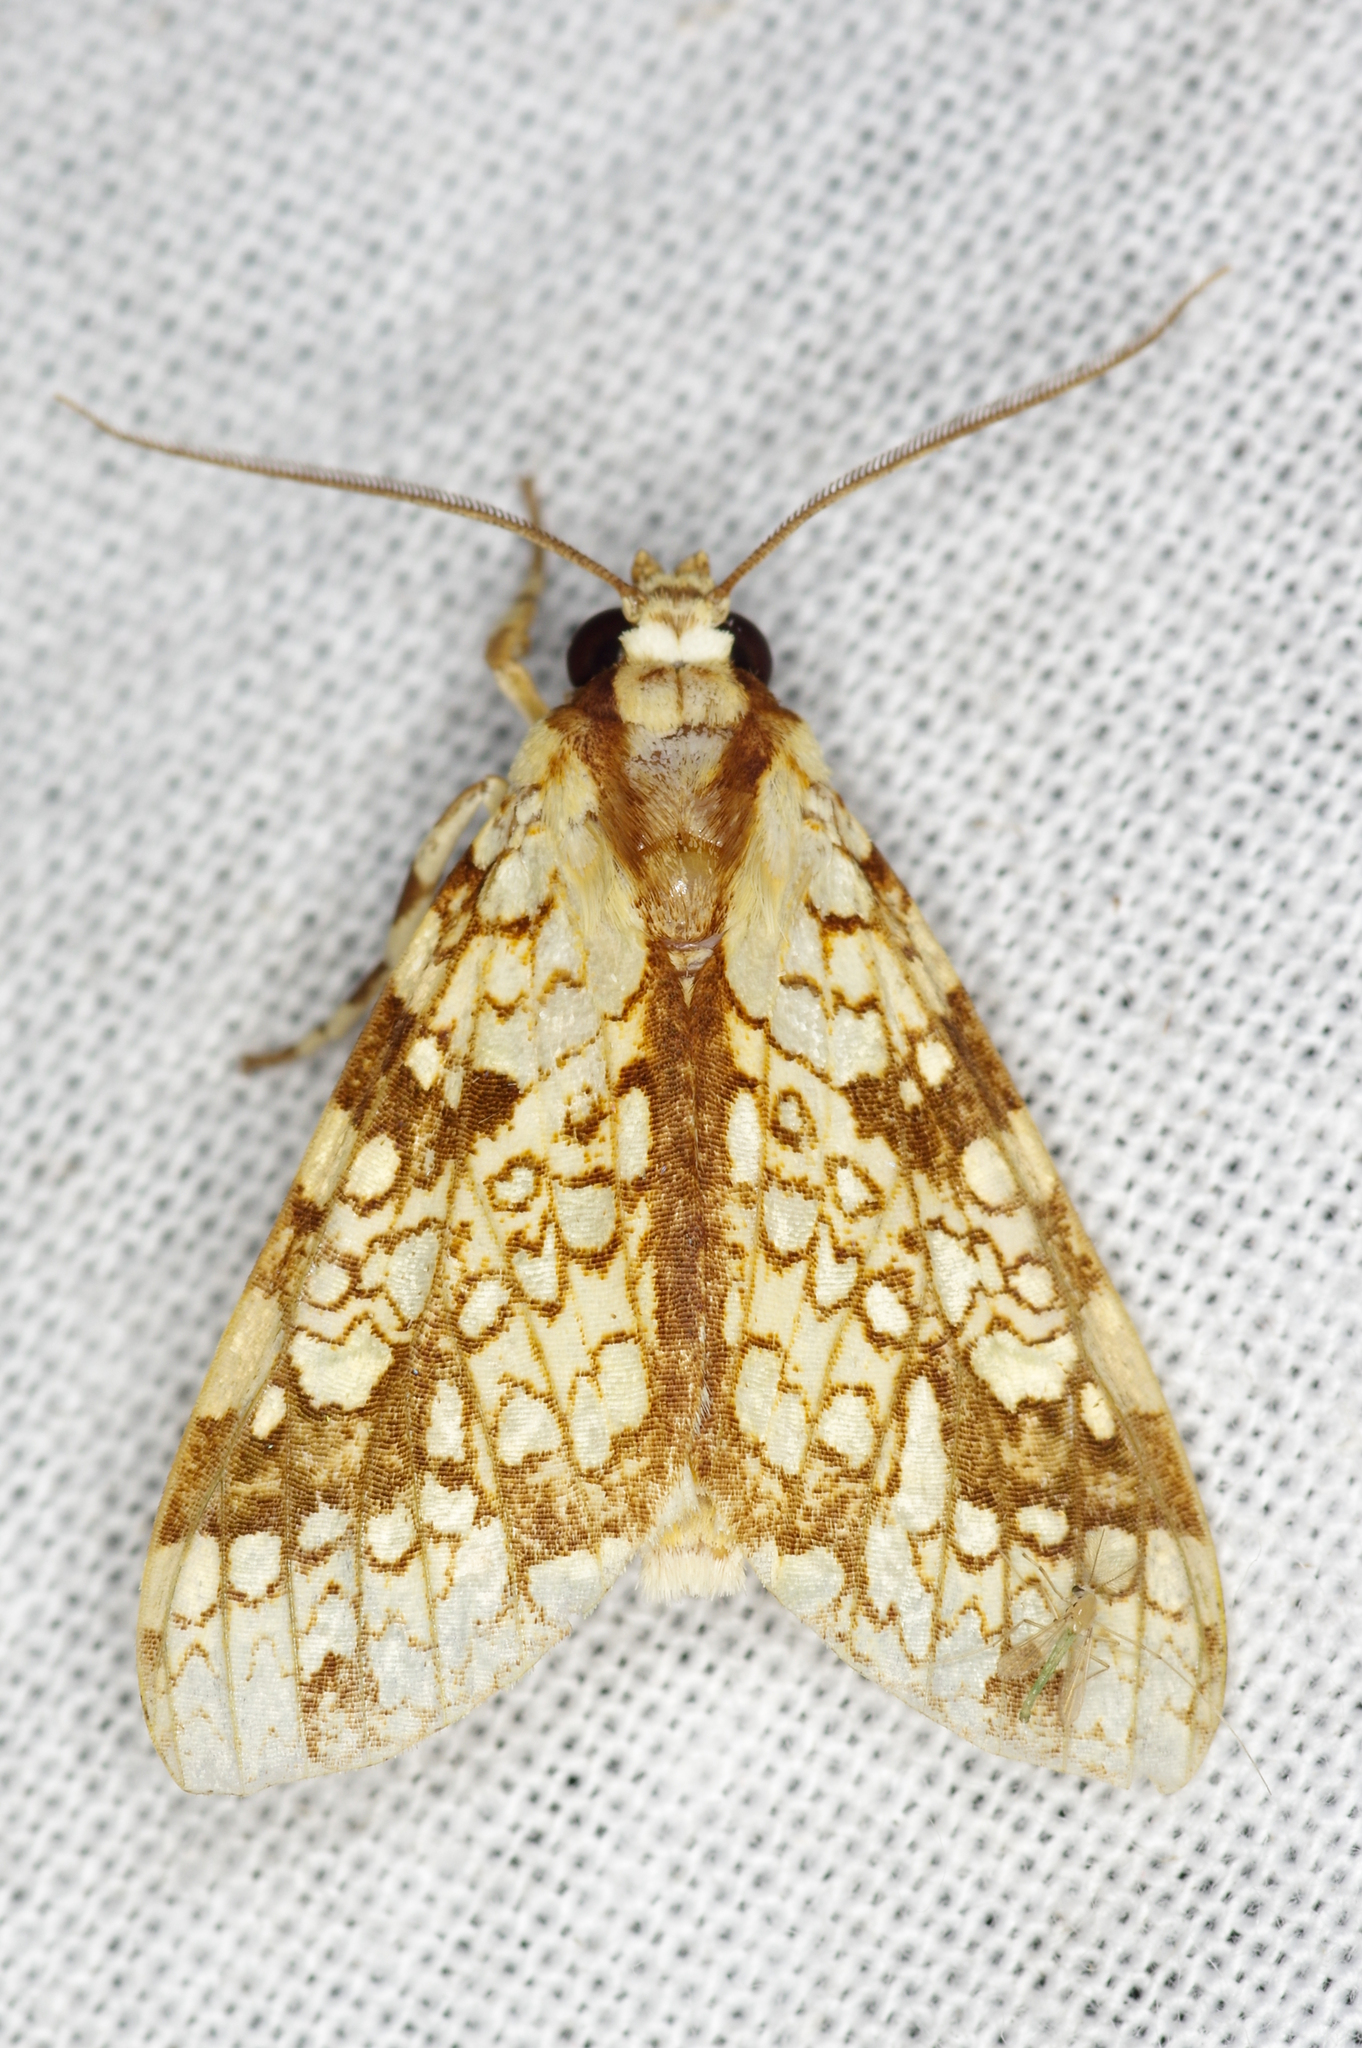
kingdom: Animalia
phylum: Arthropoda
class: Insecta
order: Lepidoptera
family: Erebidae
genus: Tessella
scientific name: Tessella flavescens
